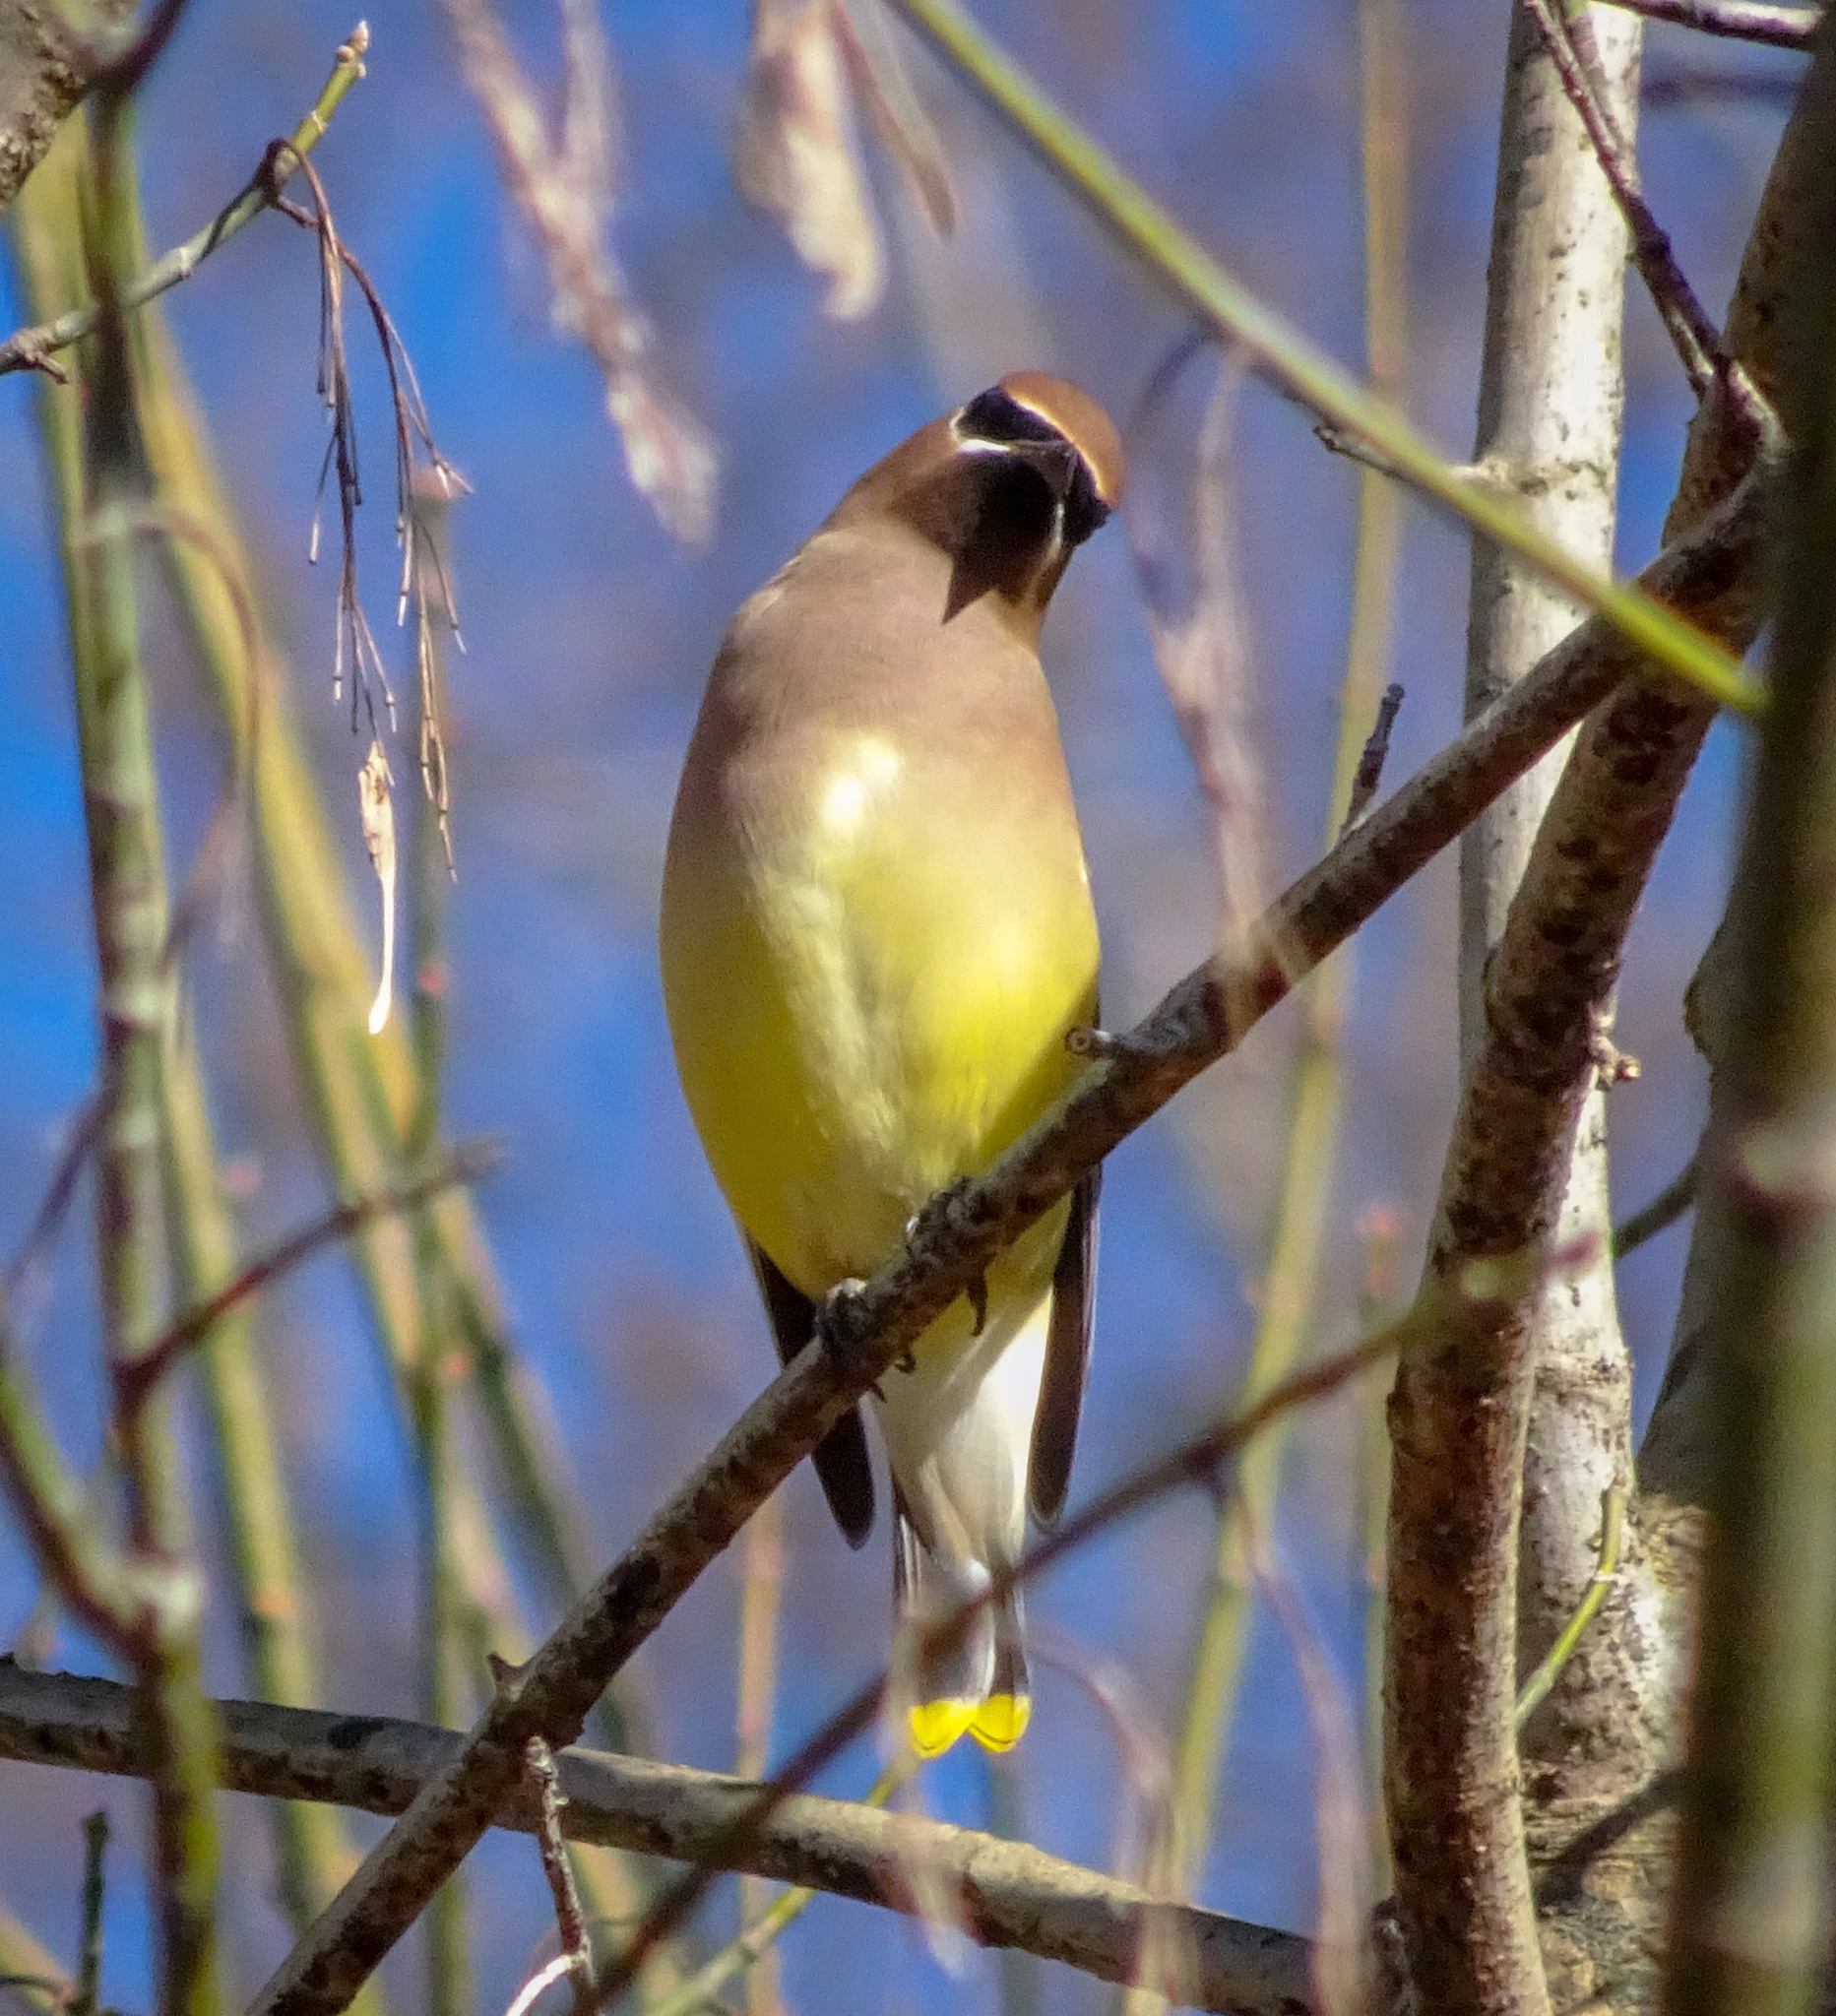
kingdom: Animalia
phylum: Chordata
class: Aves
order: Passeriformes
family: Bombycillidae
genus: Bombycilla
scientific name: Bombycilla cedrorum
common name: Cedar waxwing
